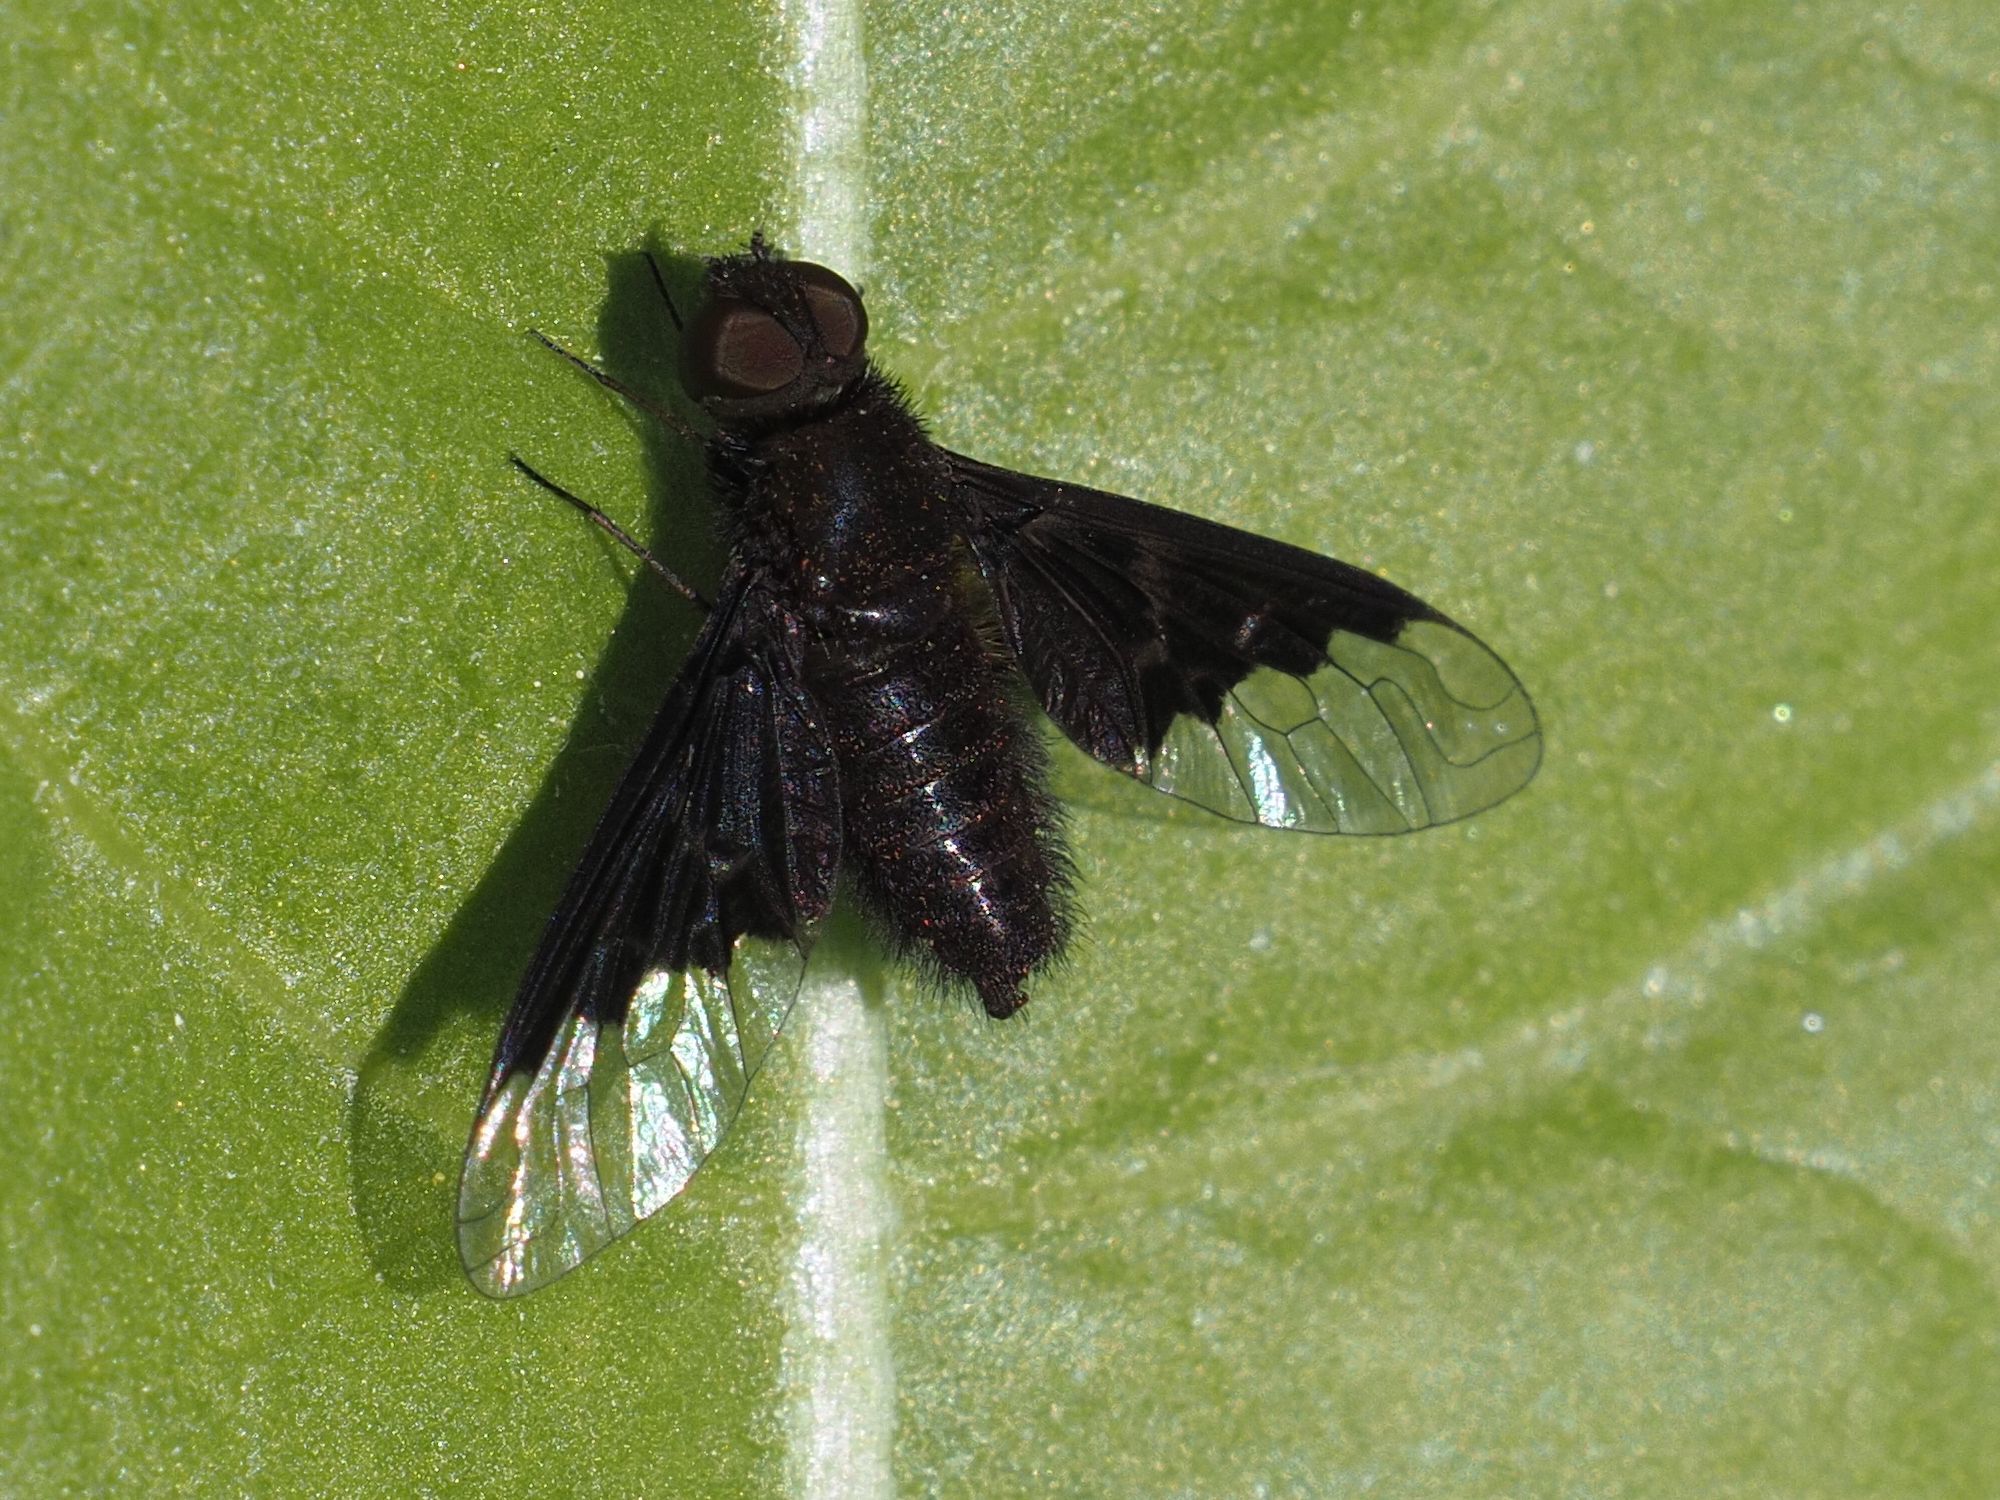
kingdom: Animalia
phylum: Arthropoda
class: Insecta
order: Diptera
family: Bombyliidae
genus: Hemipenthes
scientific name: Hemipenthes morio
